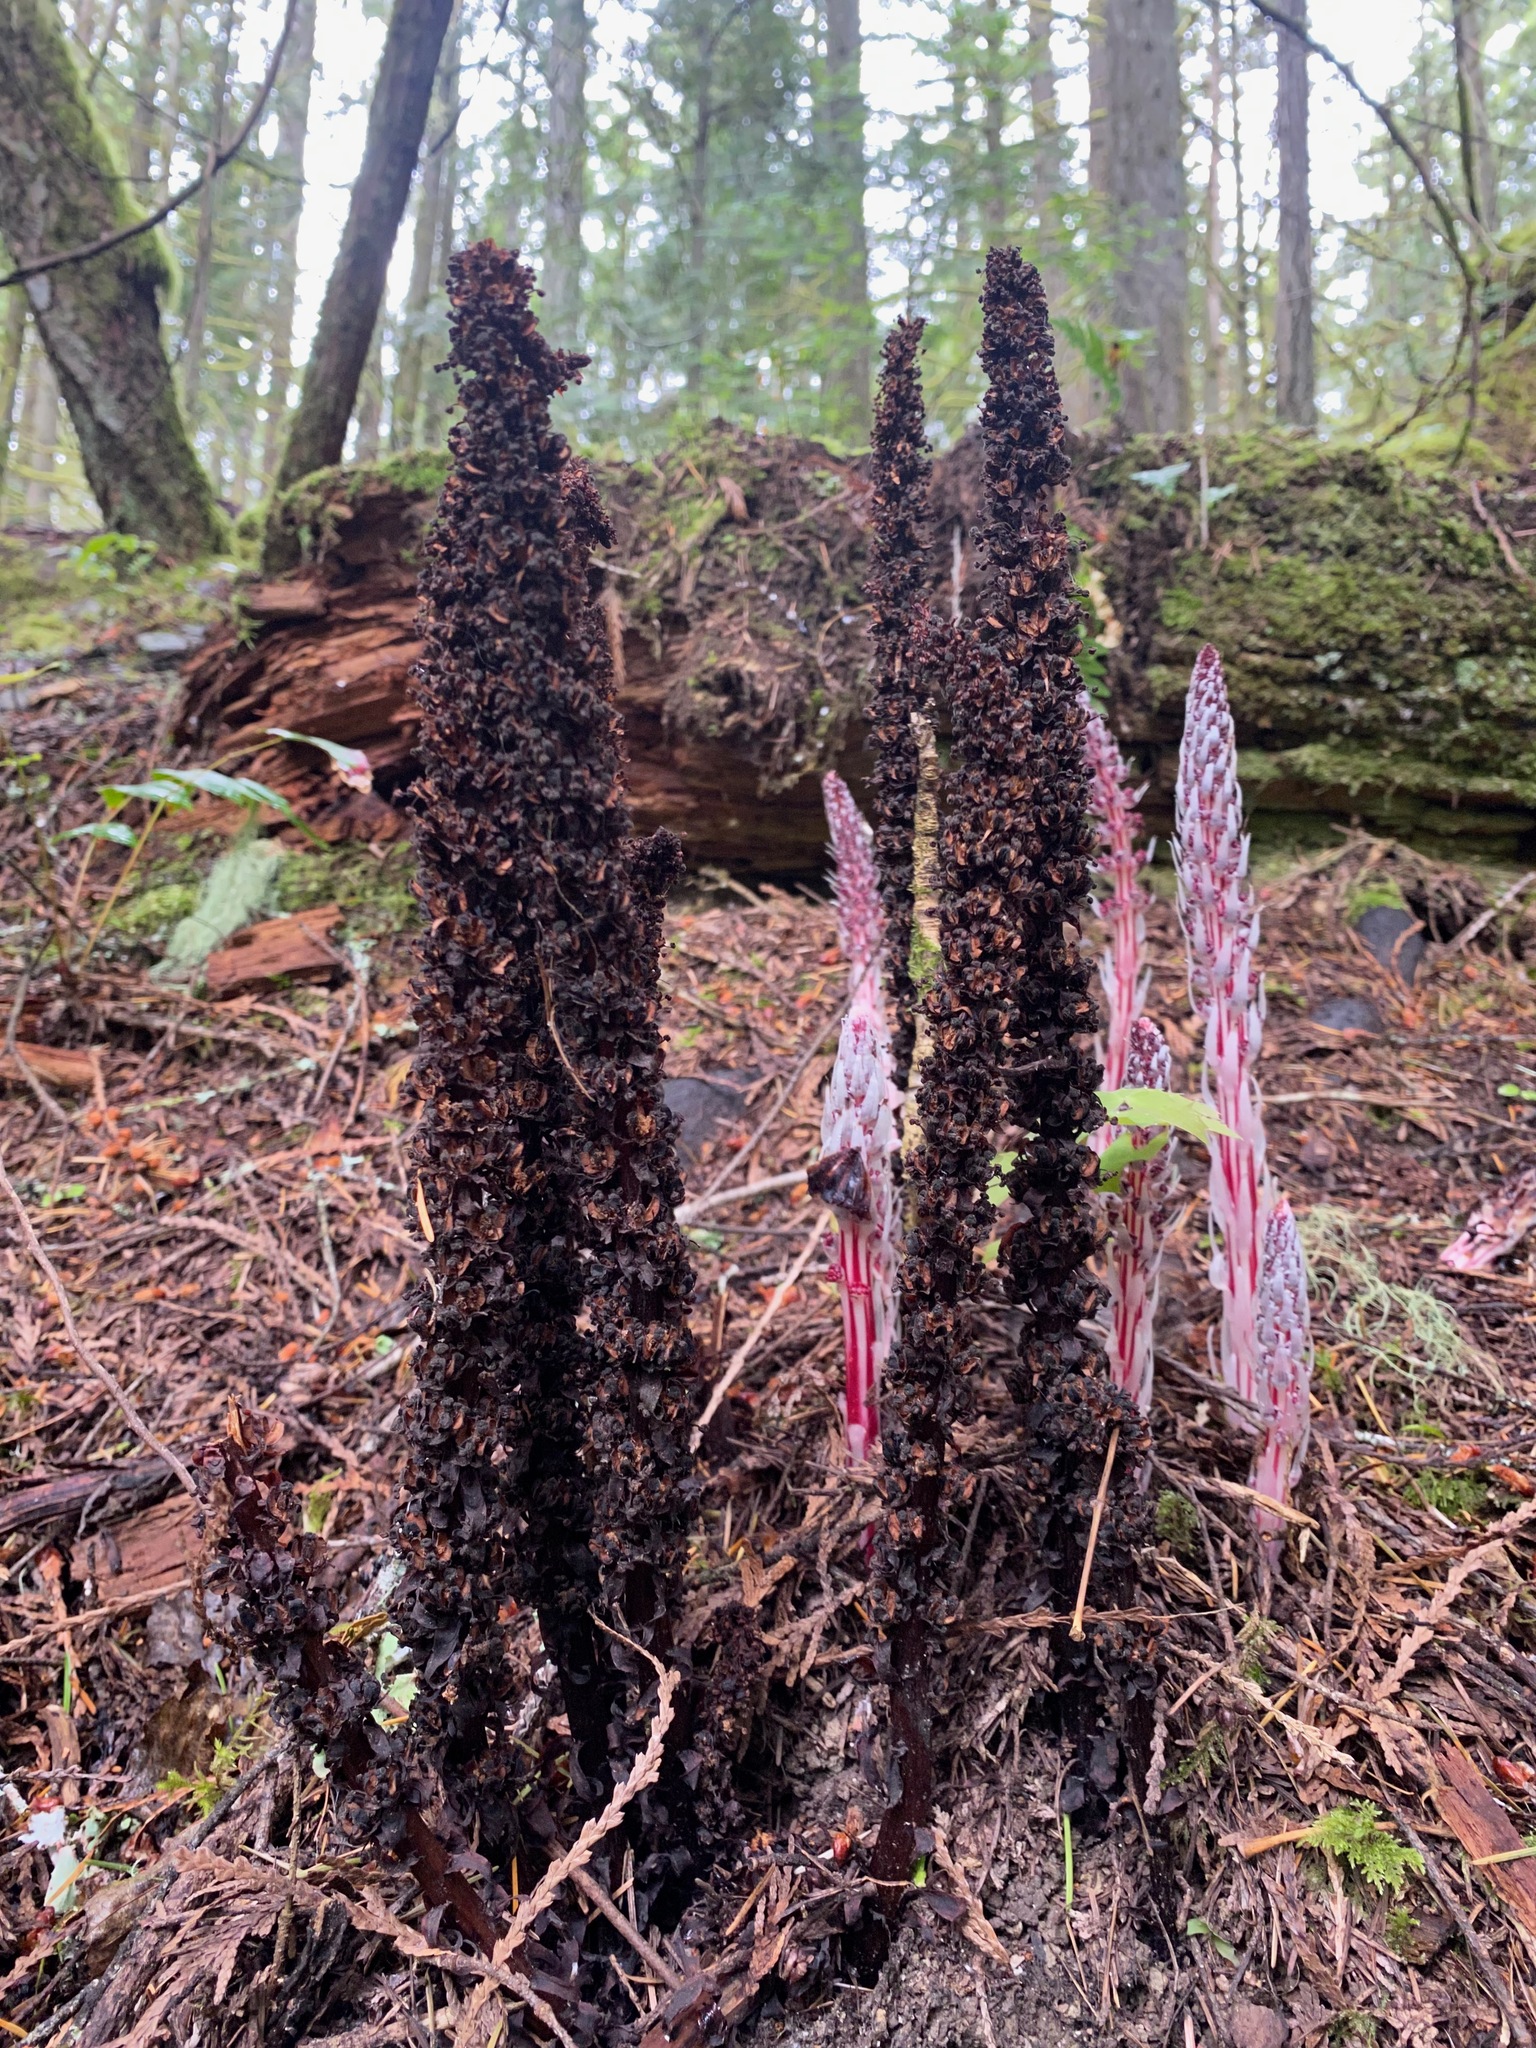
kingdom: Plantae
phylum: Tracheophyta
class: Magnoliopsida
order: Ericales
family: Ericaceae
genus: Allotropa
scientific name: Allotropa virgata
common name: Candy-striped allotropa
